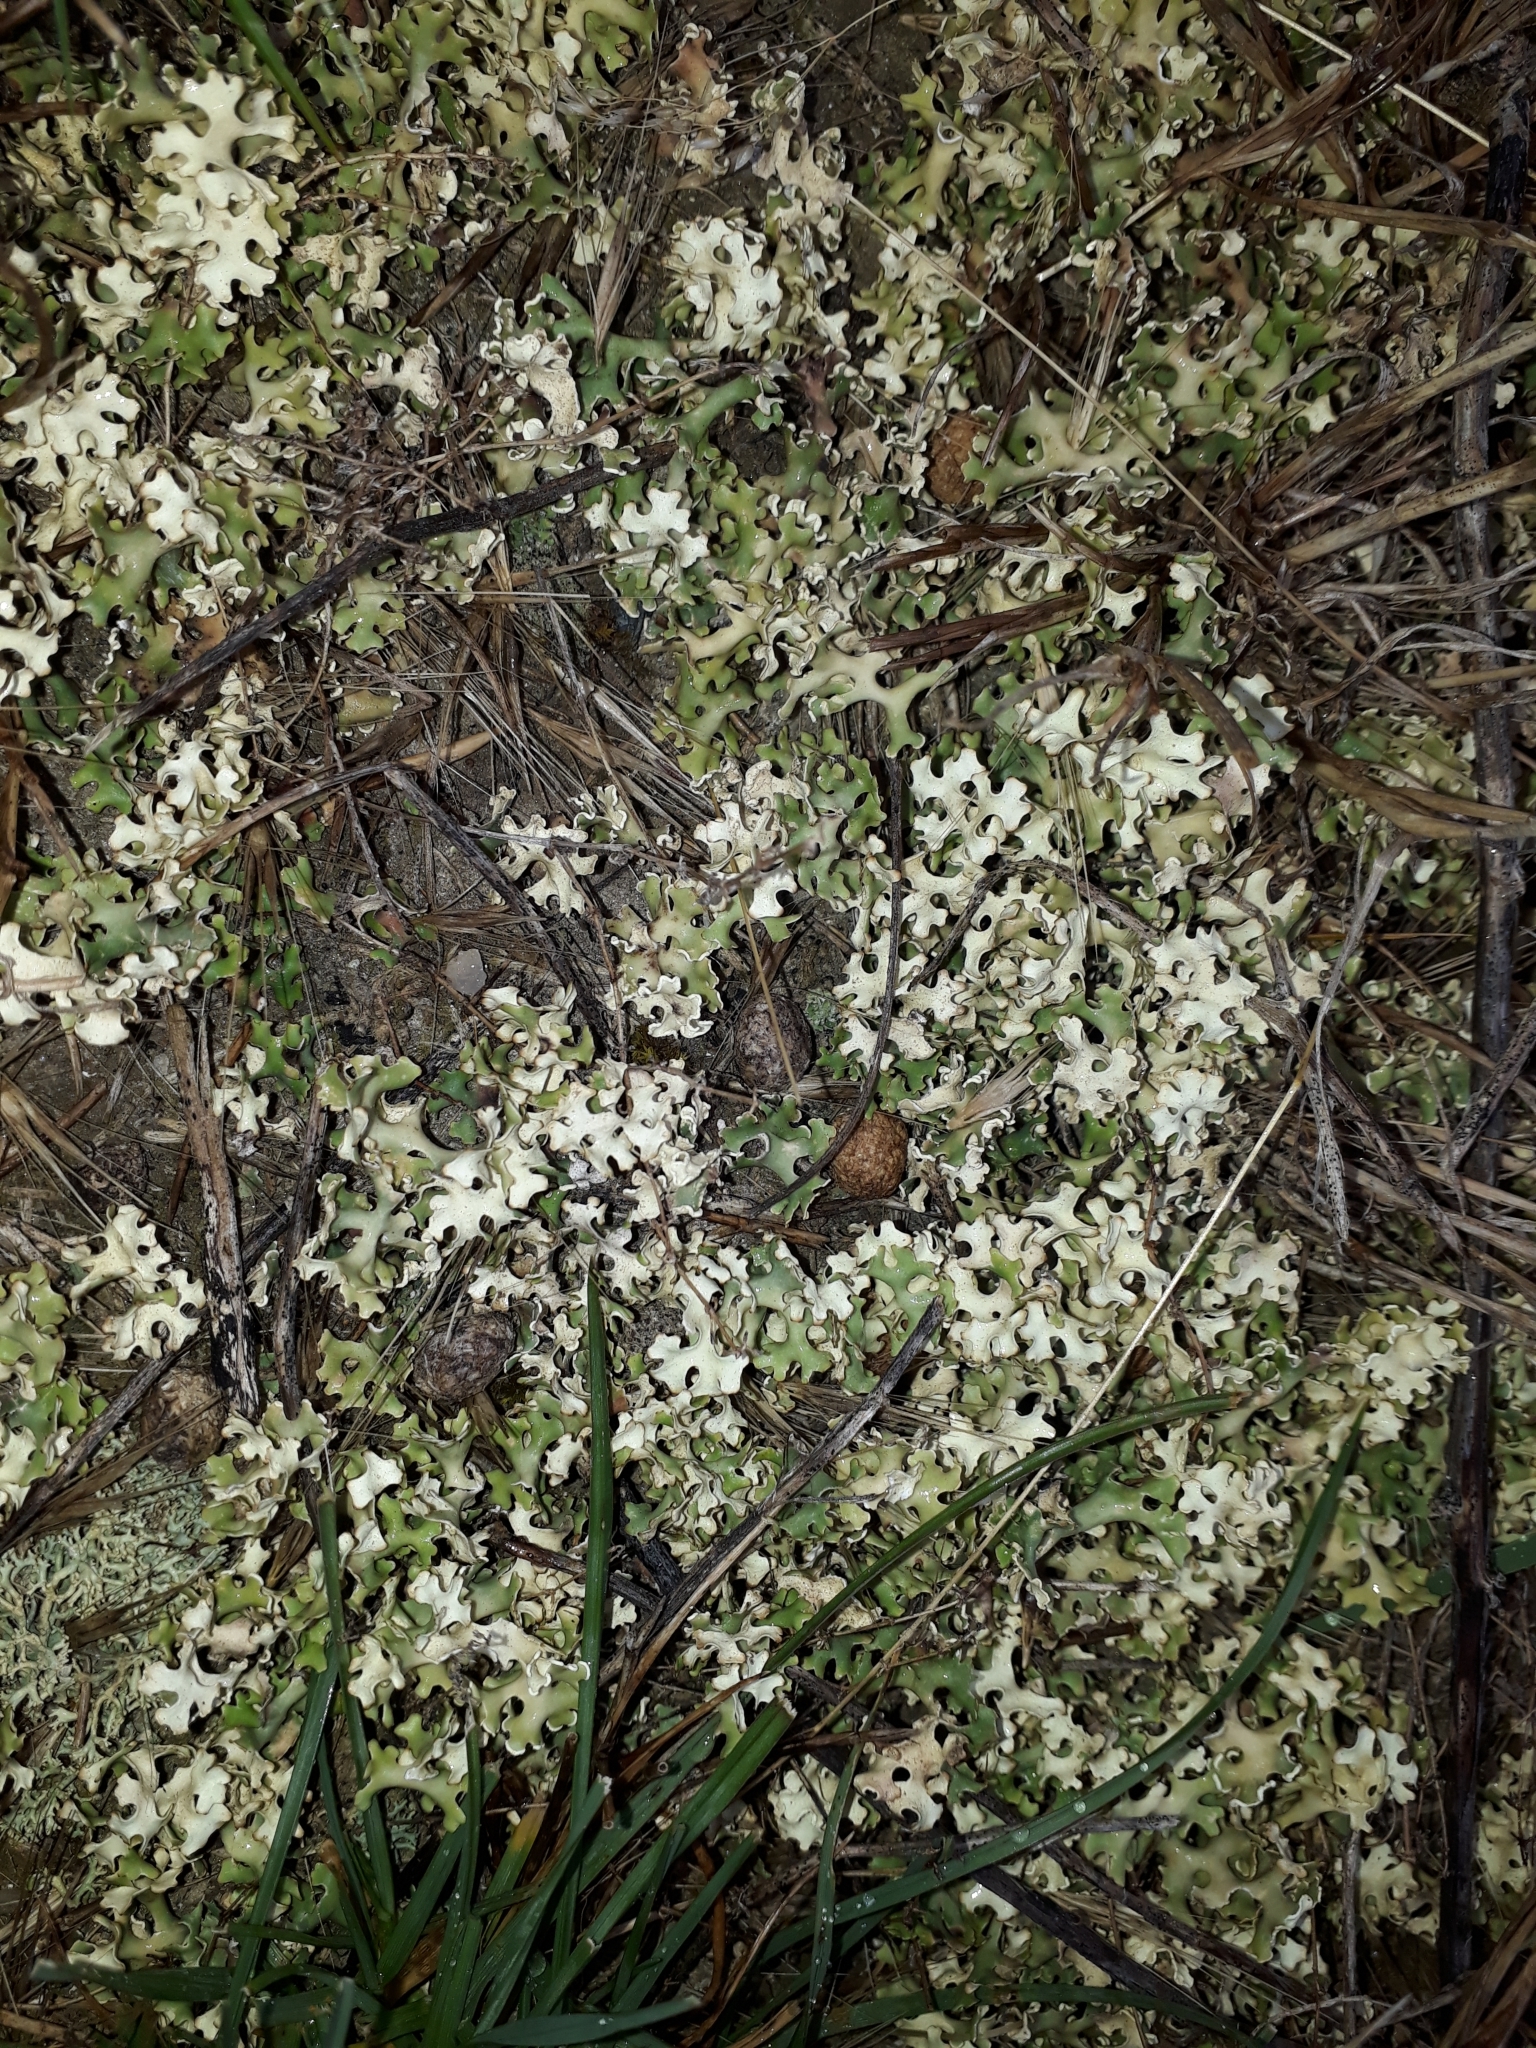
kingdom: Fungi
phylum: Ascomycota
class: Lecanoromycetes
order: Lecanorales
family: Parmeliaceae
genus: Xanthoparmelia
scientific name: Xanthoparmelia semiviridis
